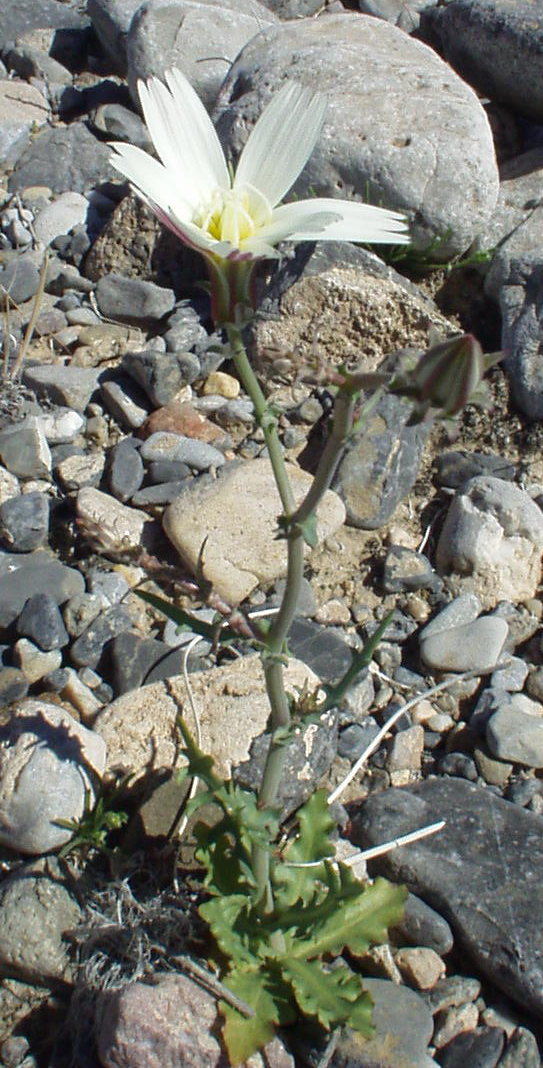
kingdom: Plantae
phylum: Tracheophyta
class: Magnoliopsida
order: Asterales
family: Asteraceae
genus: Rafinesquia
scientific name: Rafinesquia neomexicana
